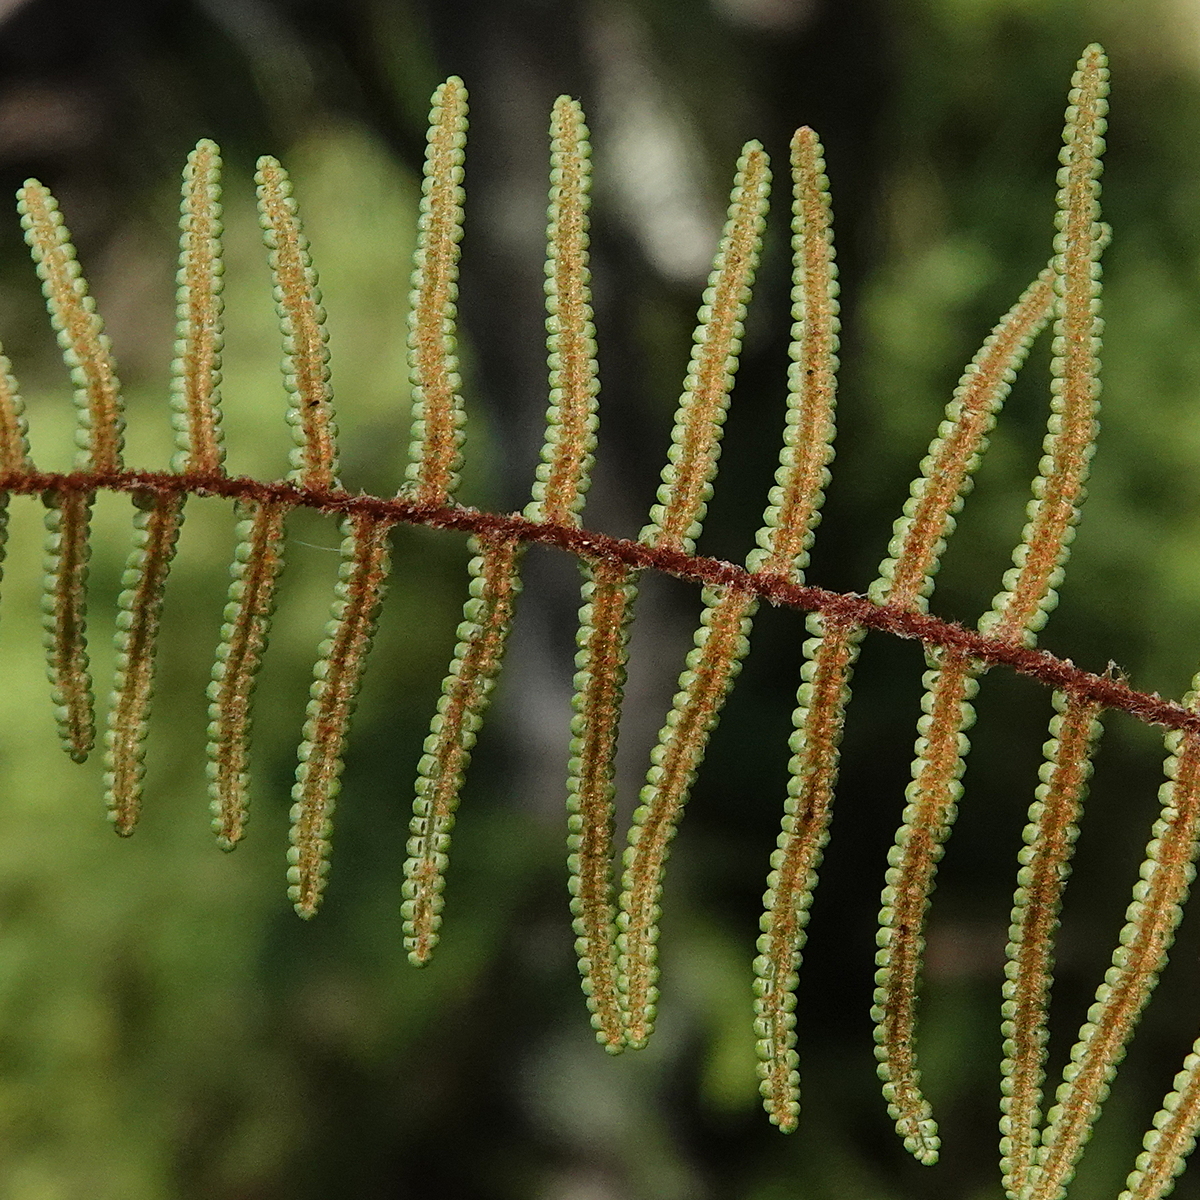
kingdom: Plantae
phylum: Tracheophyta
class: Polypodiopsida
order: Gleicheniales
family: Gleicheniaceae
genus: Gleichenia
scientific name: Gleichenia dicarpa
